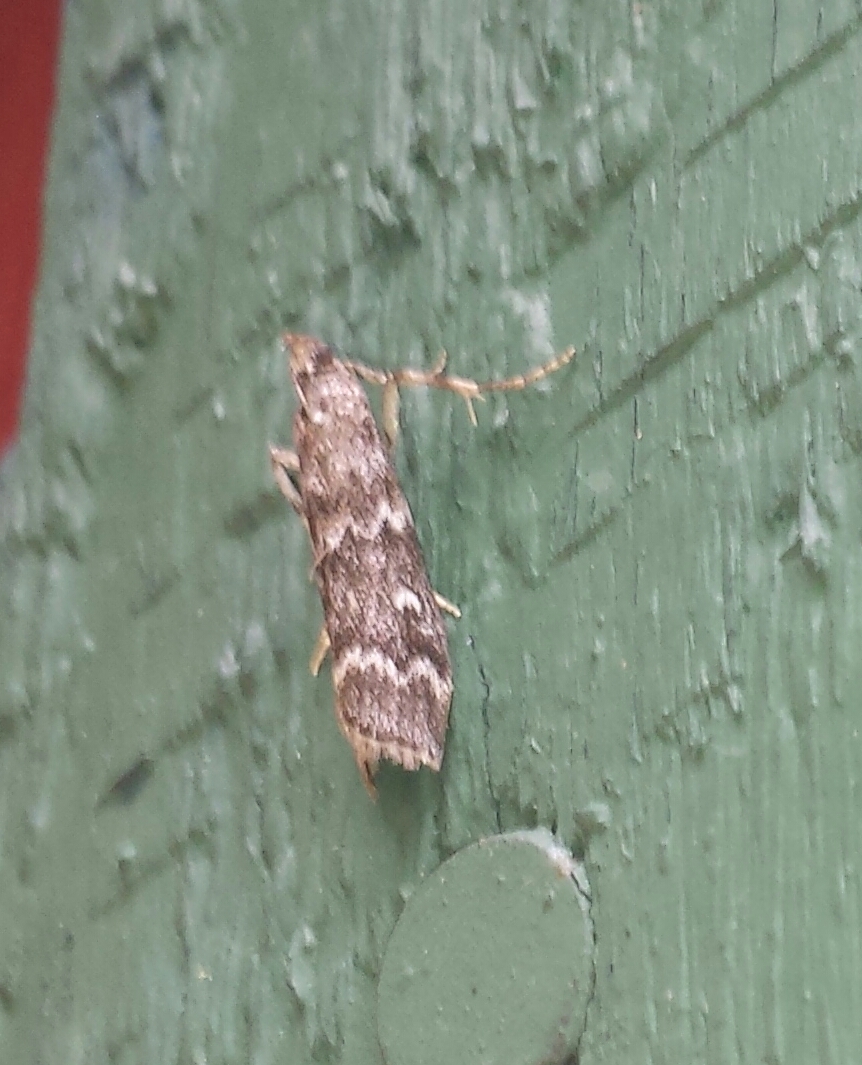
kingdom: Animalia
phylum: Arthropoda
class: Insecta
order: Lepidoptera
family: Pyralidae
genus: Dioryctria
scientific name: Dioryctria reniculelloides
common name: Spruce coneworm moth
